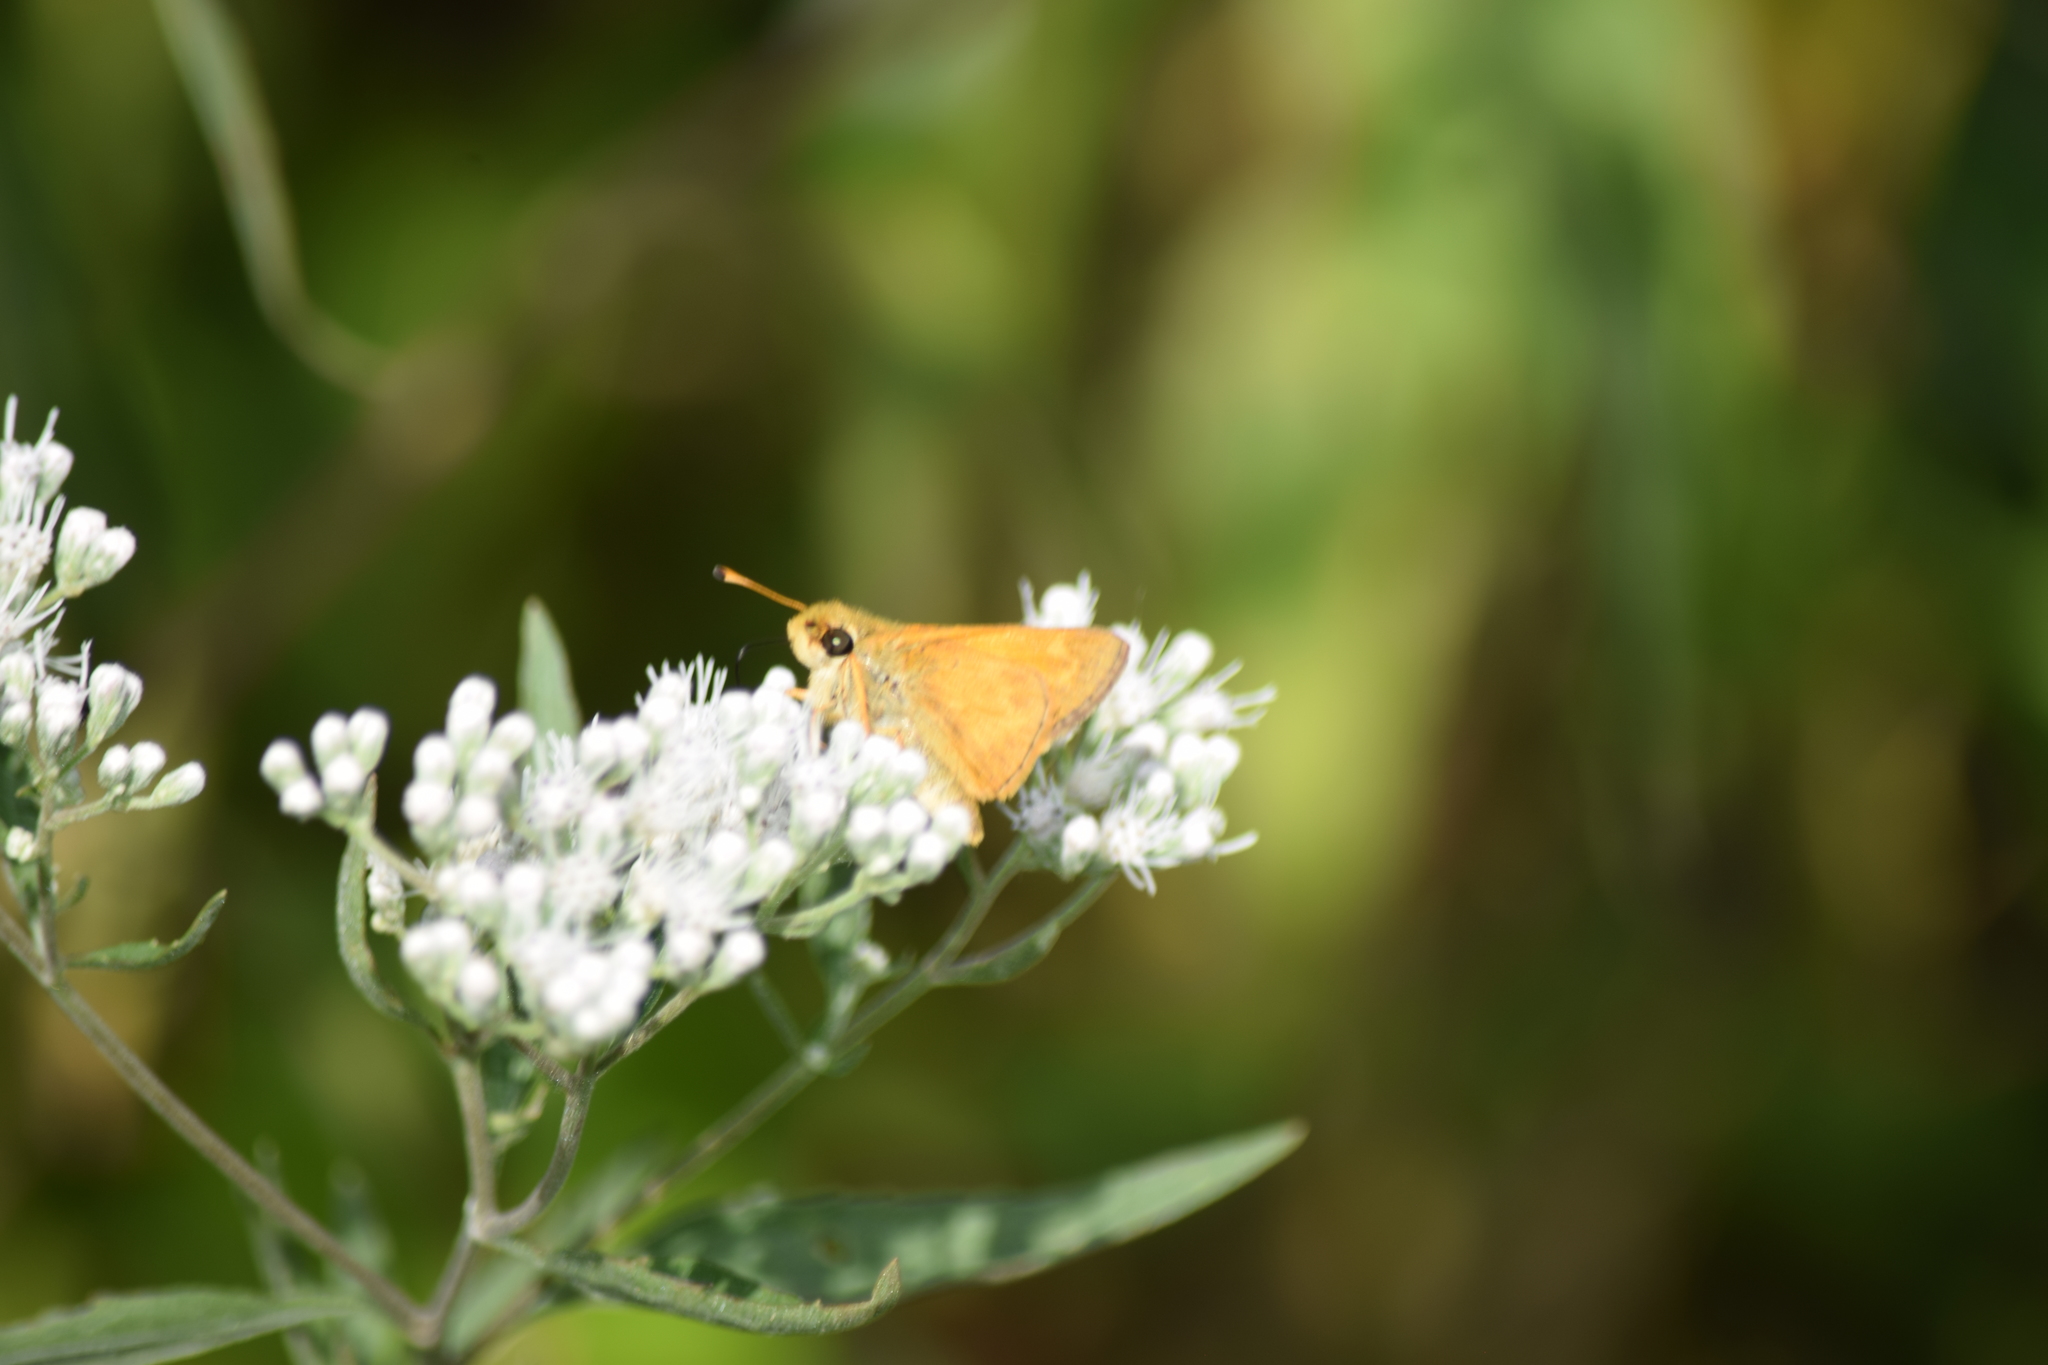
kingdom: Animalia
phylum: Arthropoda
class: Insecta
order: Lepidoptera
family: Hesperiidae
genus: Atalopedes
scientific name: Atalopedes
